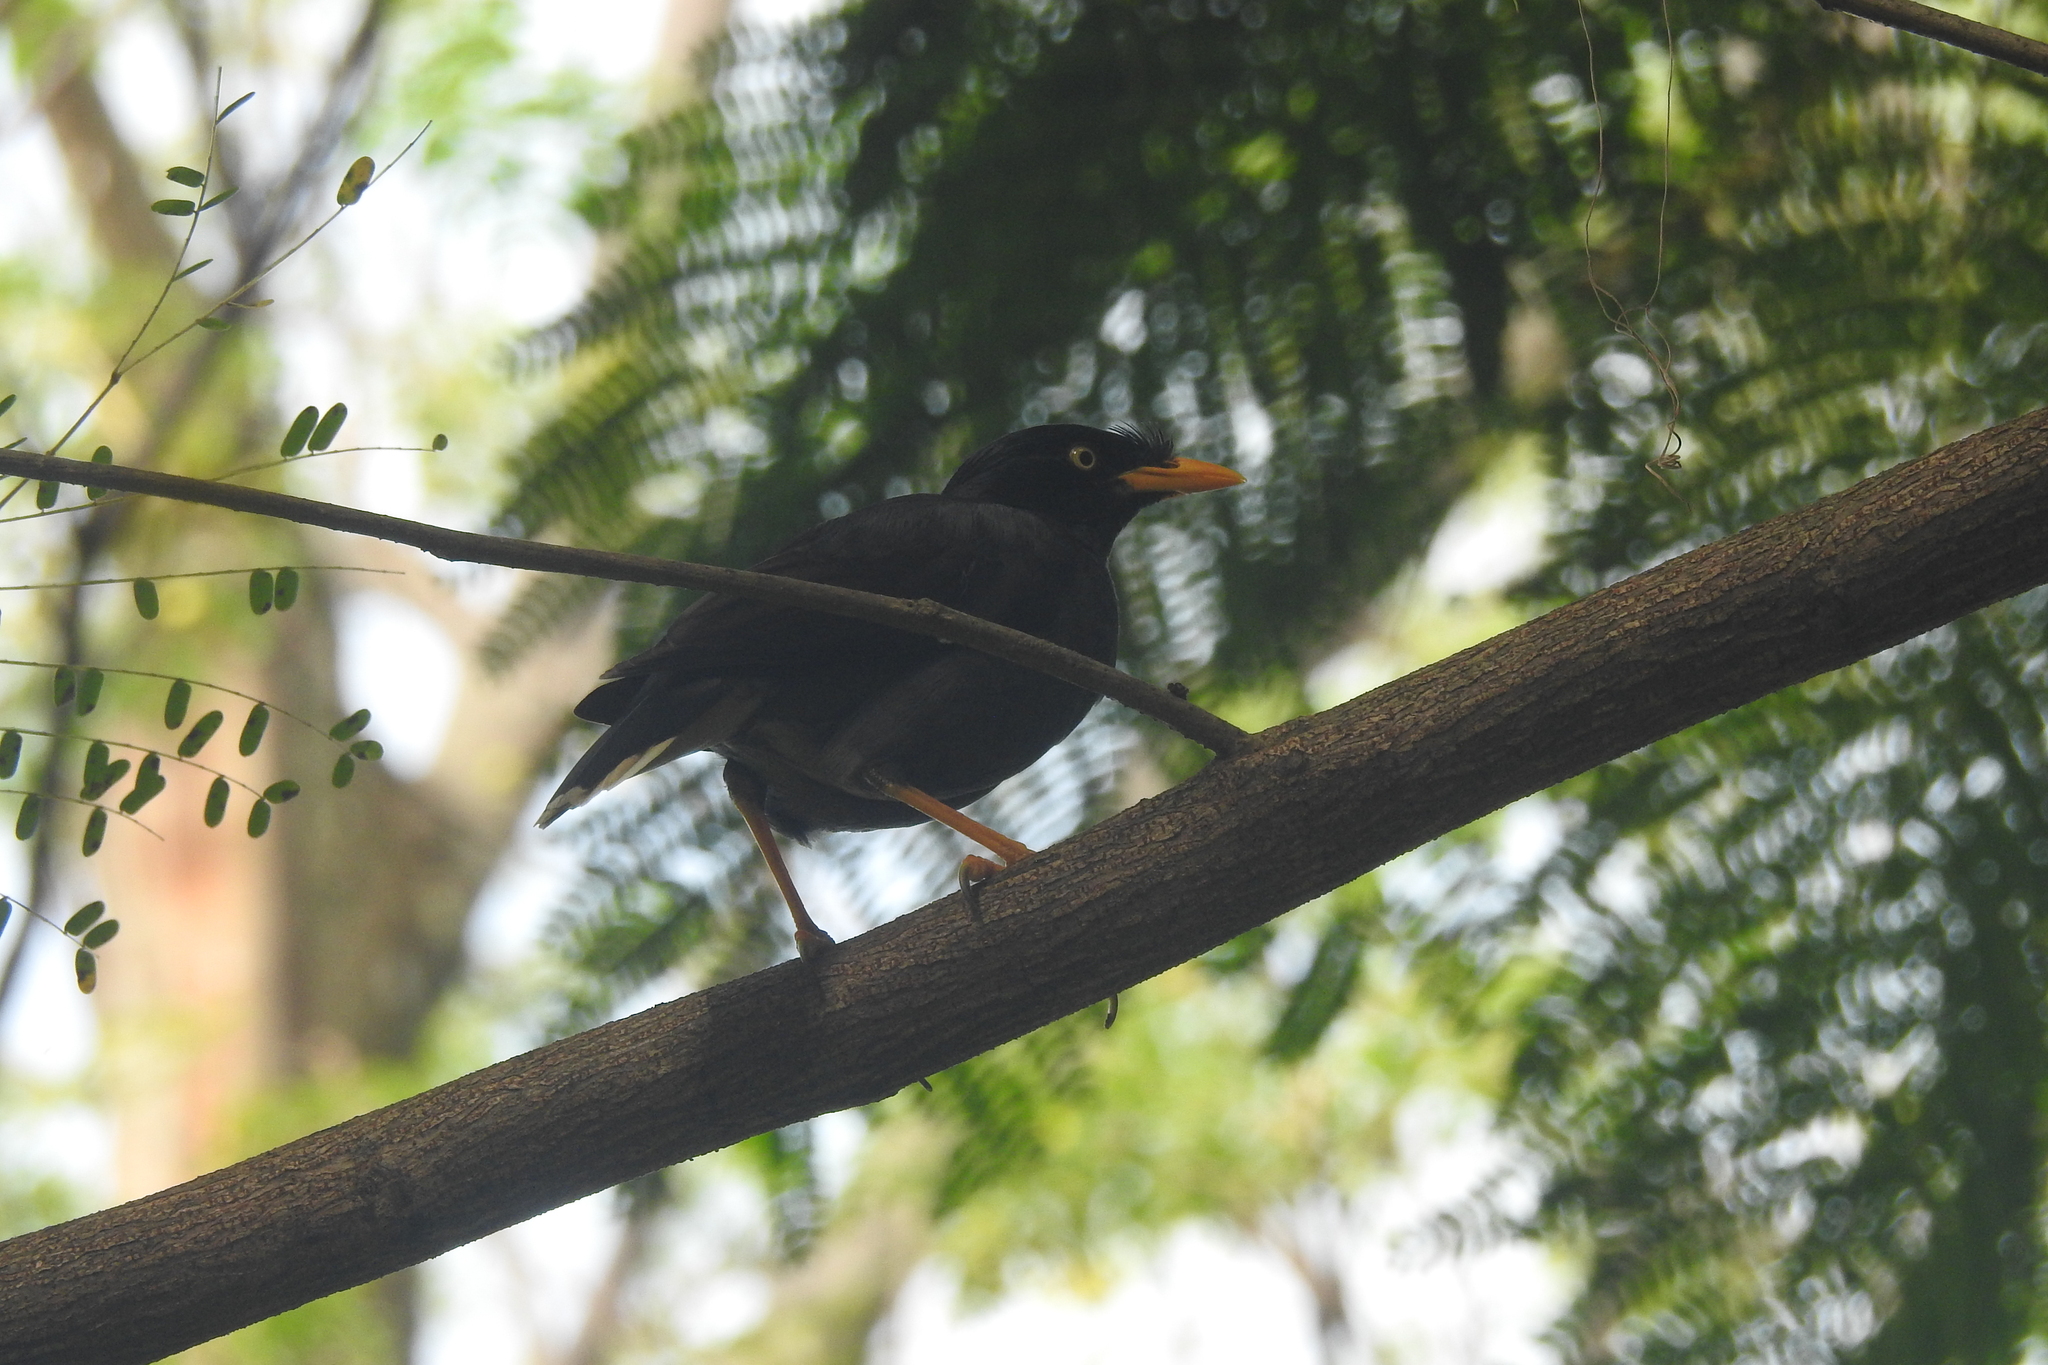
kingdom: Animalia
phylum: Chordata
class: Aves
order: Passeriformes
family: Sturnidae
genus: Acridotheres
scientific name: Acridotheres javanicus
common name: Javan myna
